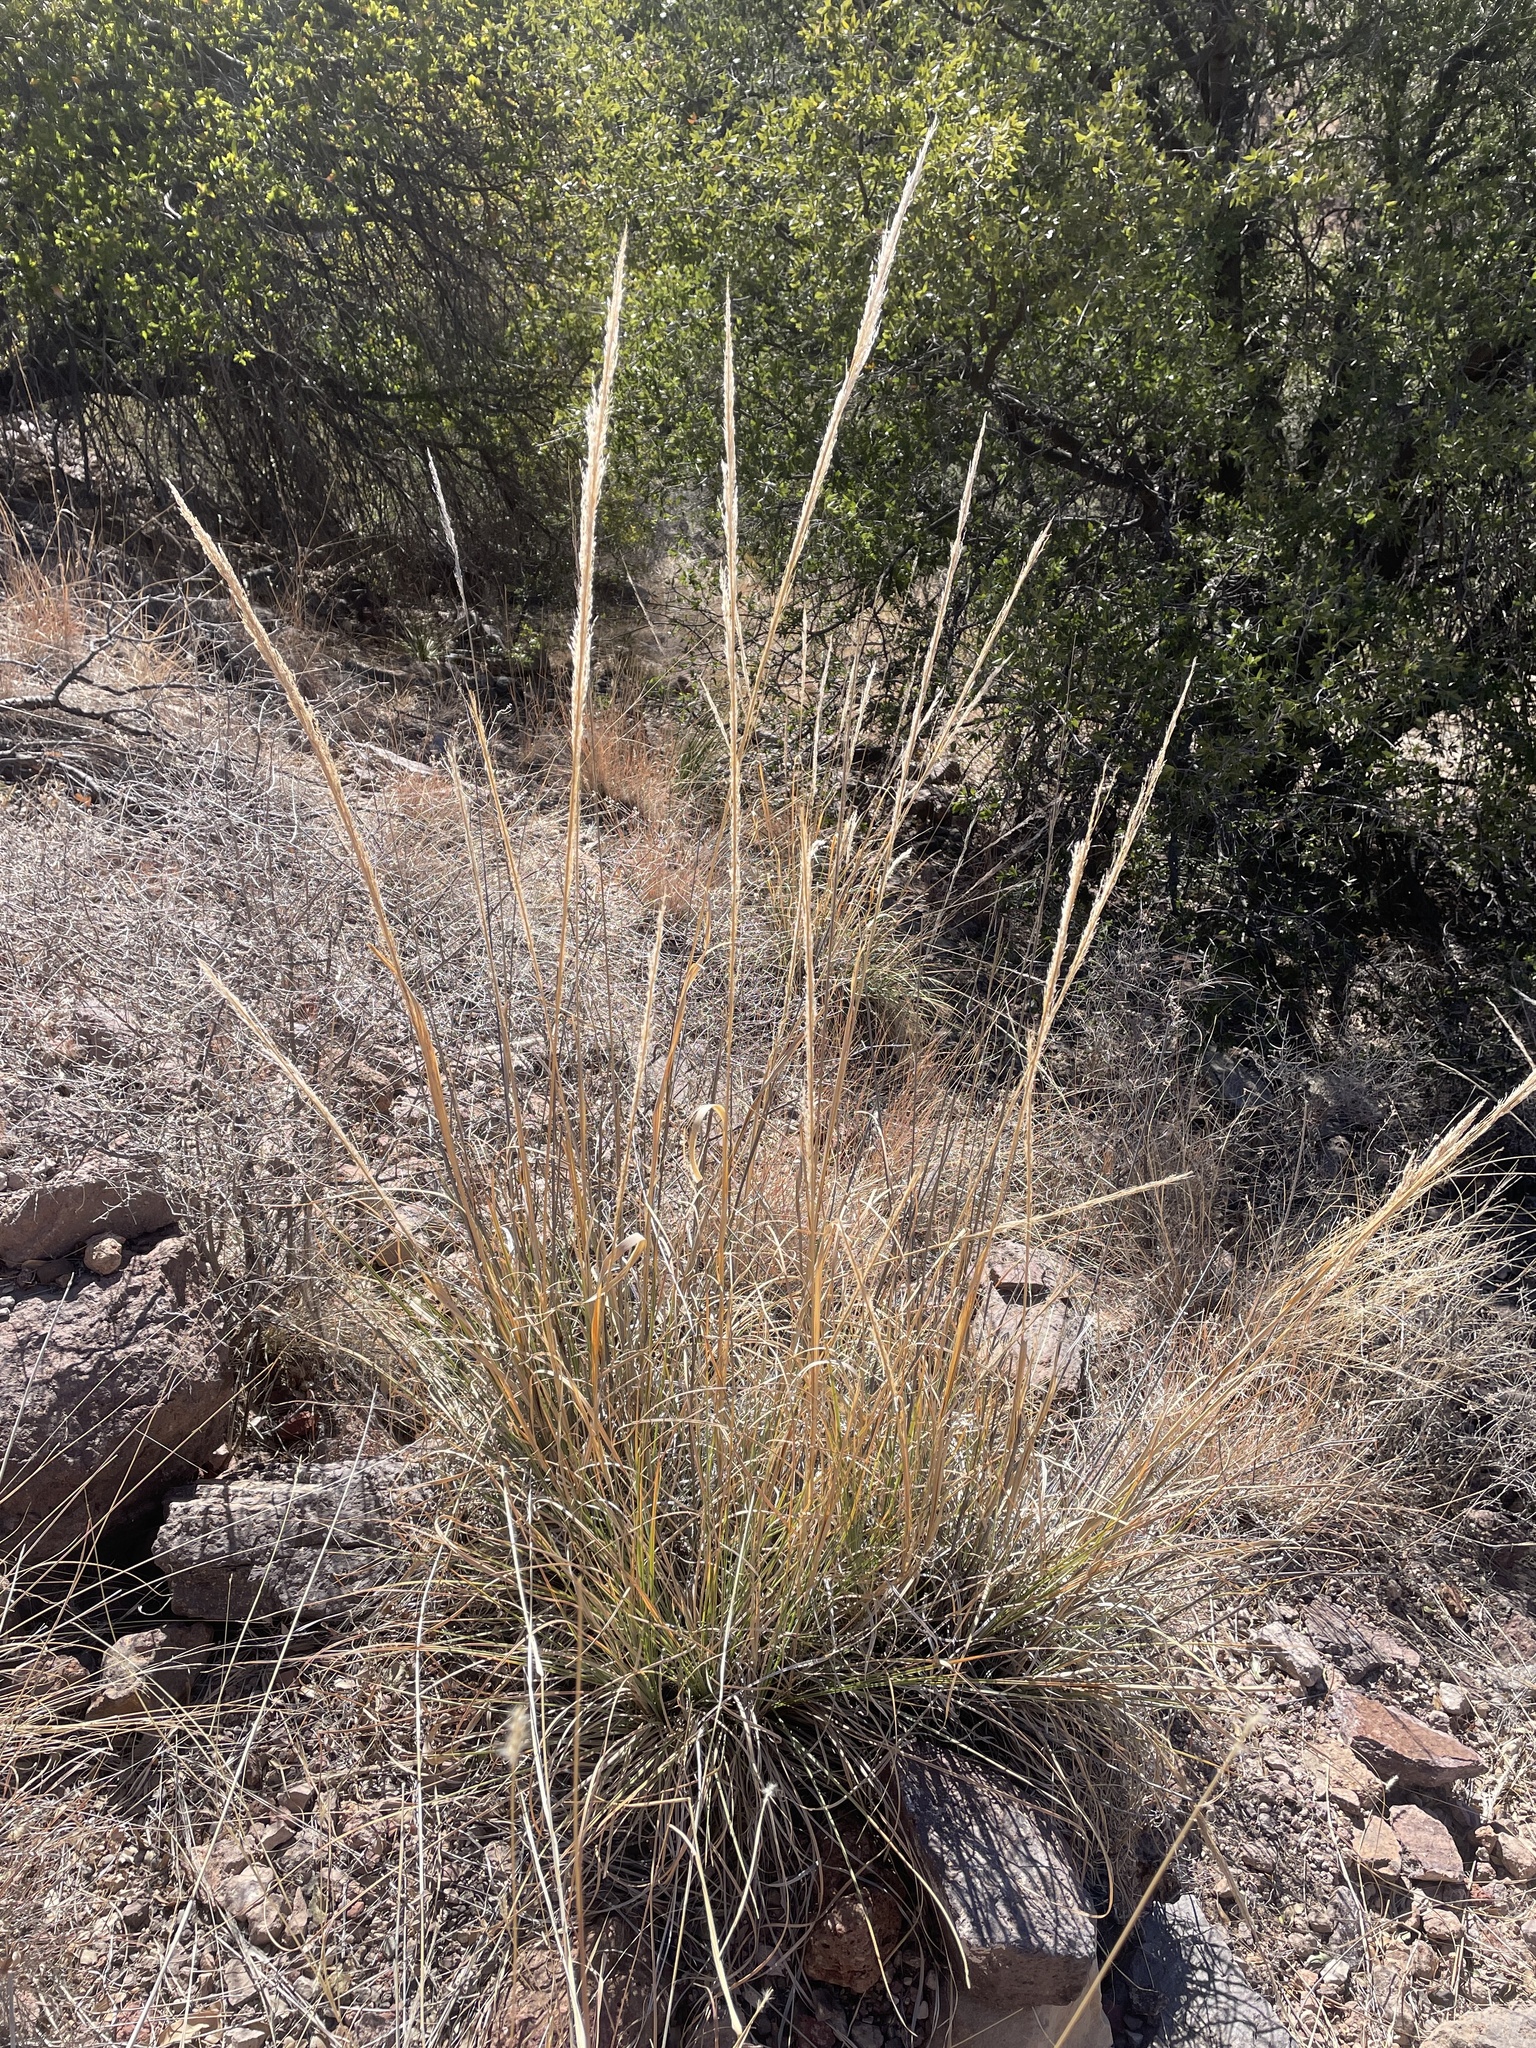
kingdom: Plantae
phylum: Tracheophyta
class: Liliopsida
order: Poales
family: Poaceae
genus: Muhlenbergia
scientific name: Muhlenbergia emersleyi
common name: Bull grass
